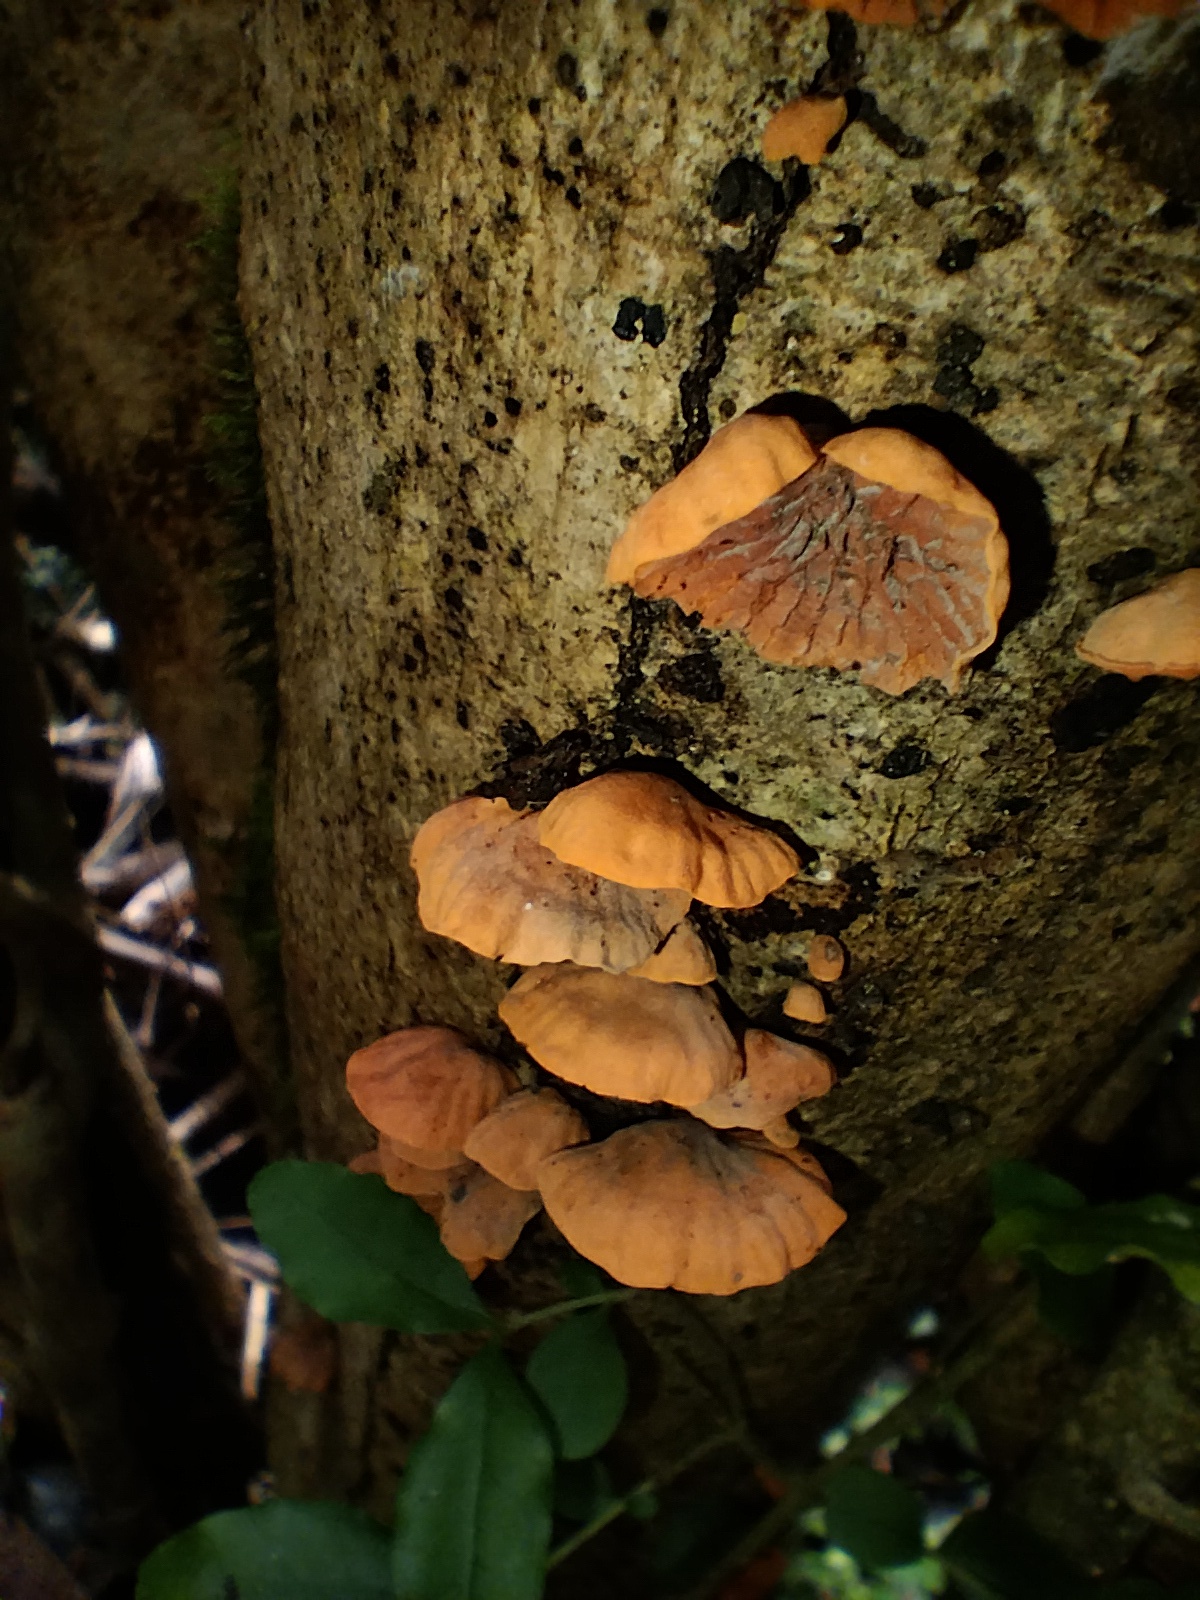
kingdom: Fungi
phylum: Basidiomycota
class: Agaricomycetes
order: Agaricales
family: Omphalotaceae
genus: Anthracophyllum
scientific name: Anthracophyllum archeri
